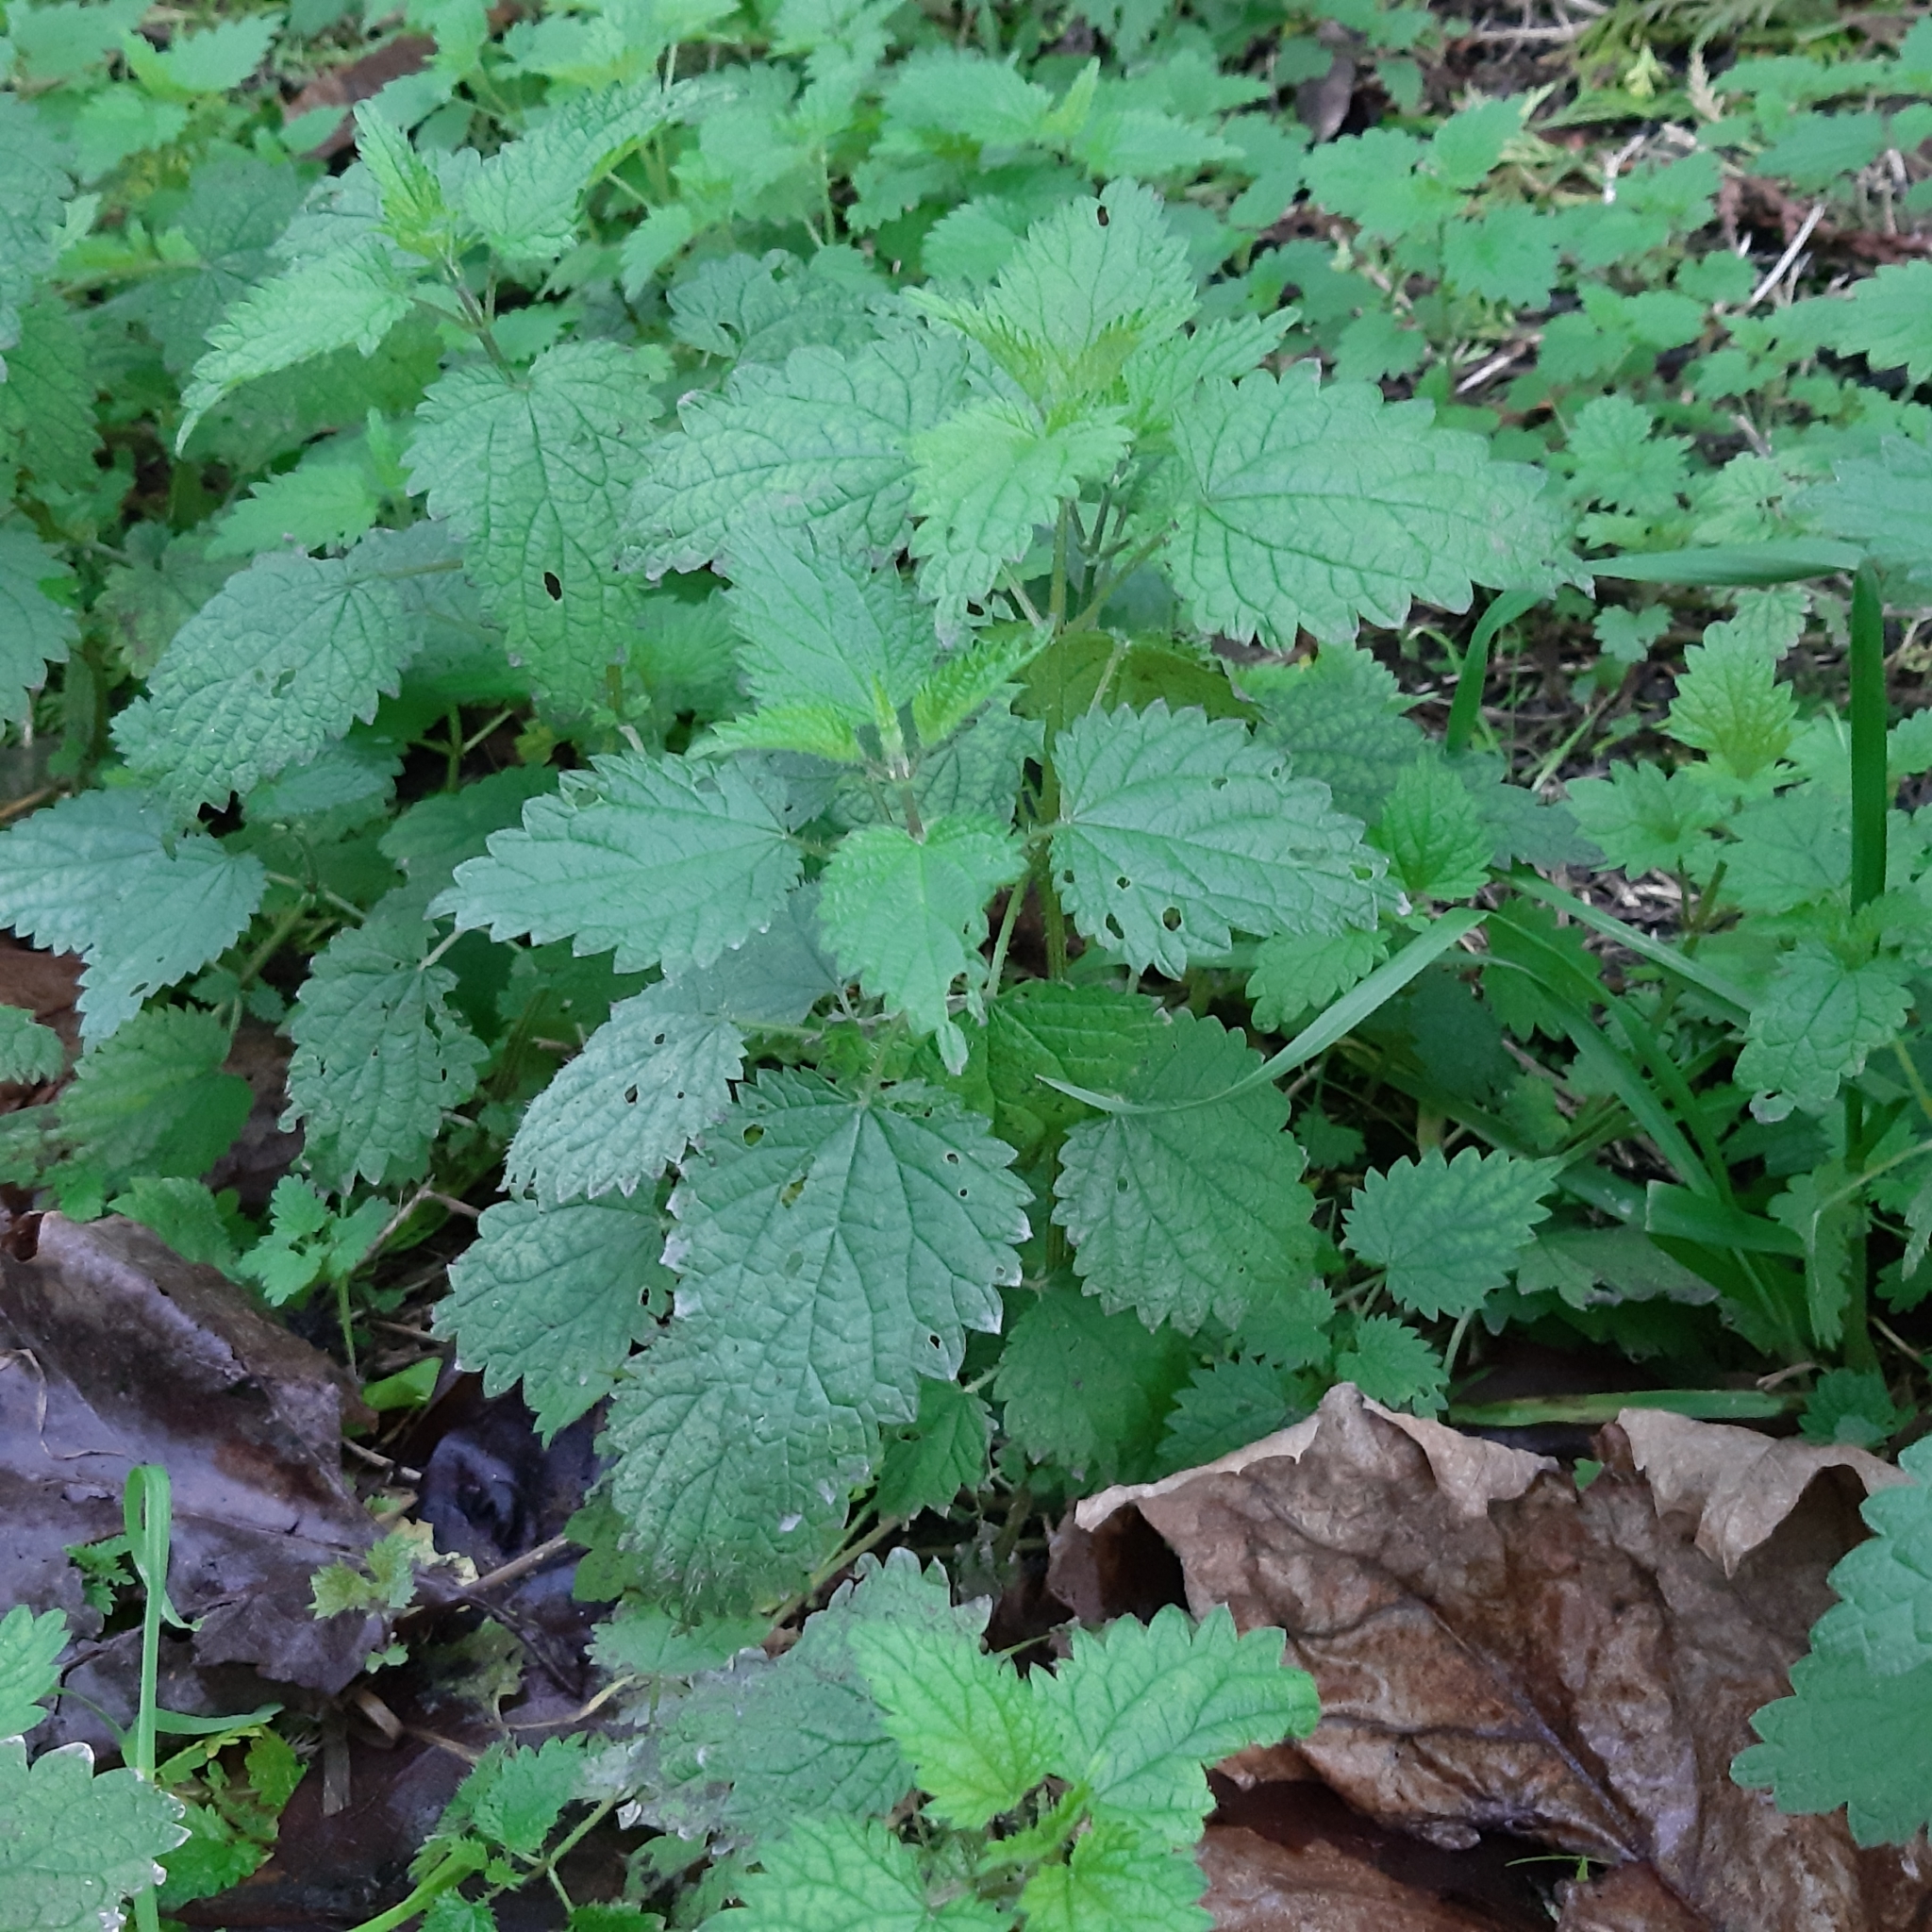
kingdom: Plantae
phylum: Tracheophyta
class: Magnoliopsida
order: Rosales
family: Urticaceae
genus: Urtica
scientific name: Urtica dioica
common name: Common nettle
